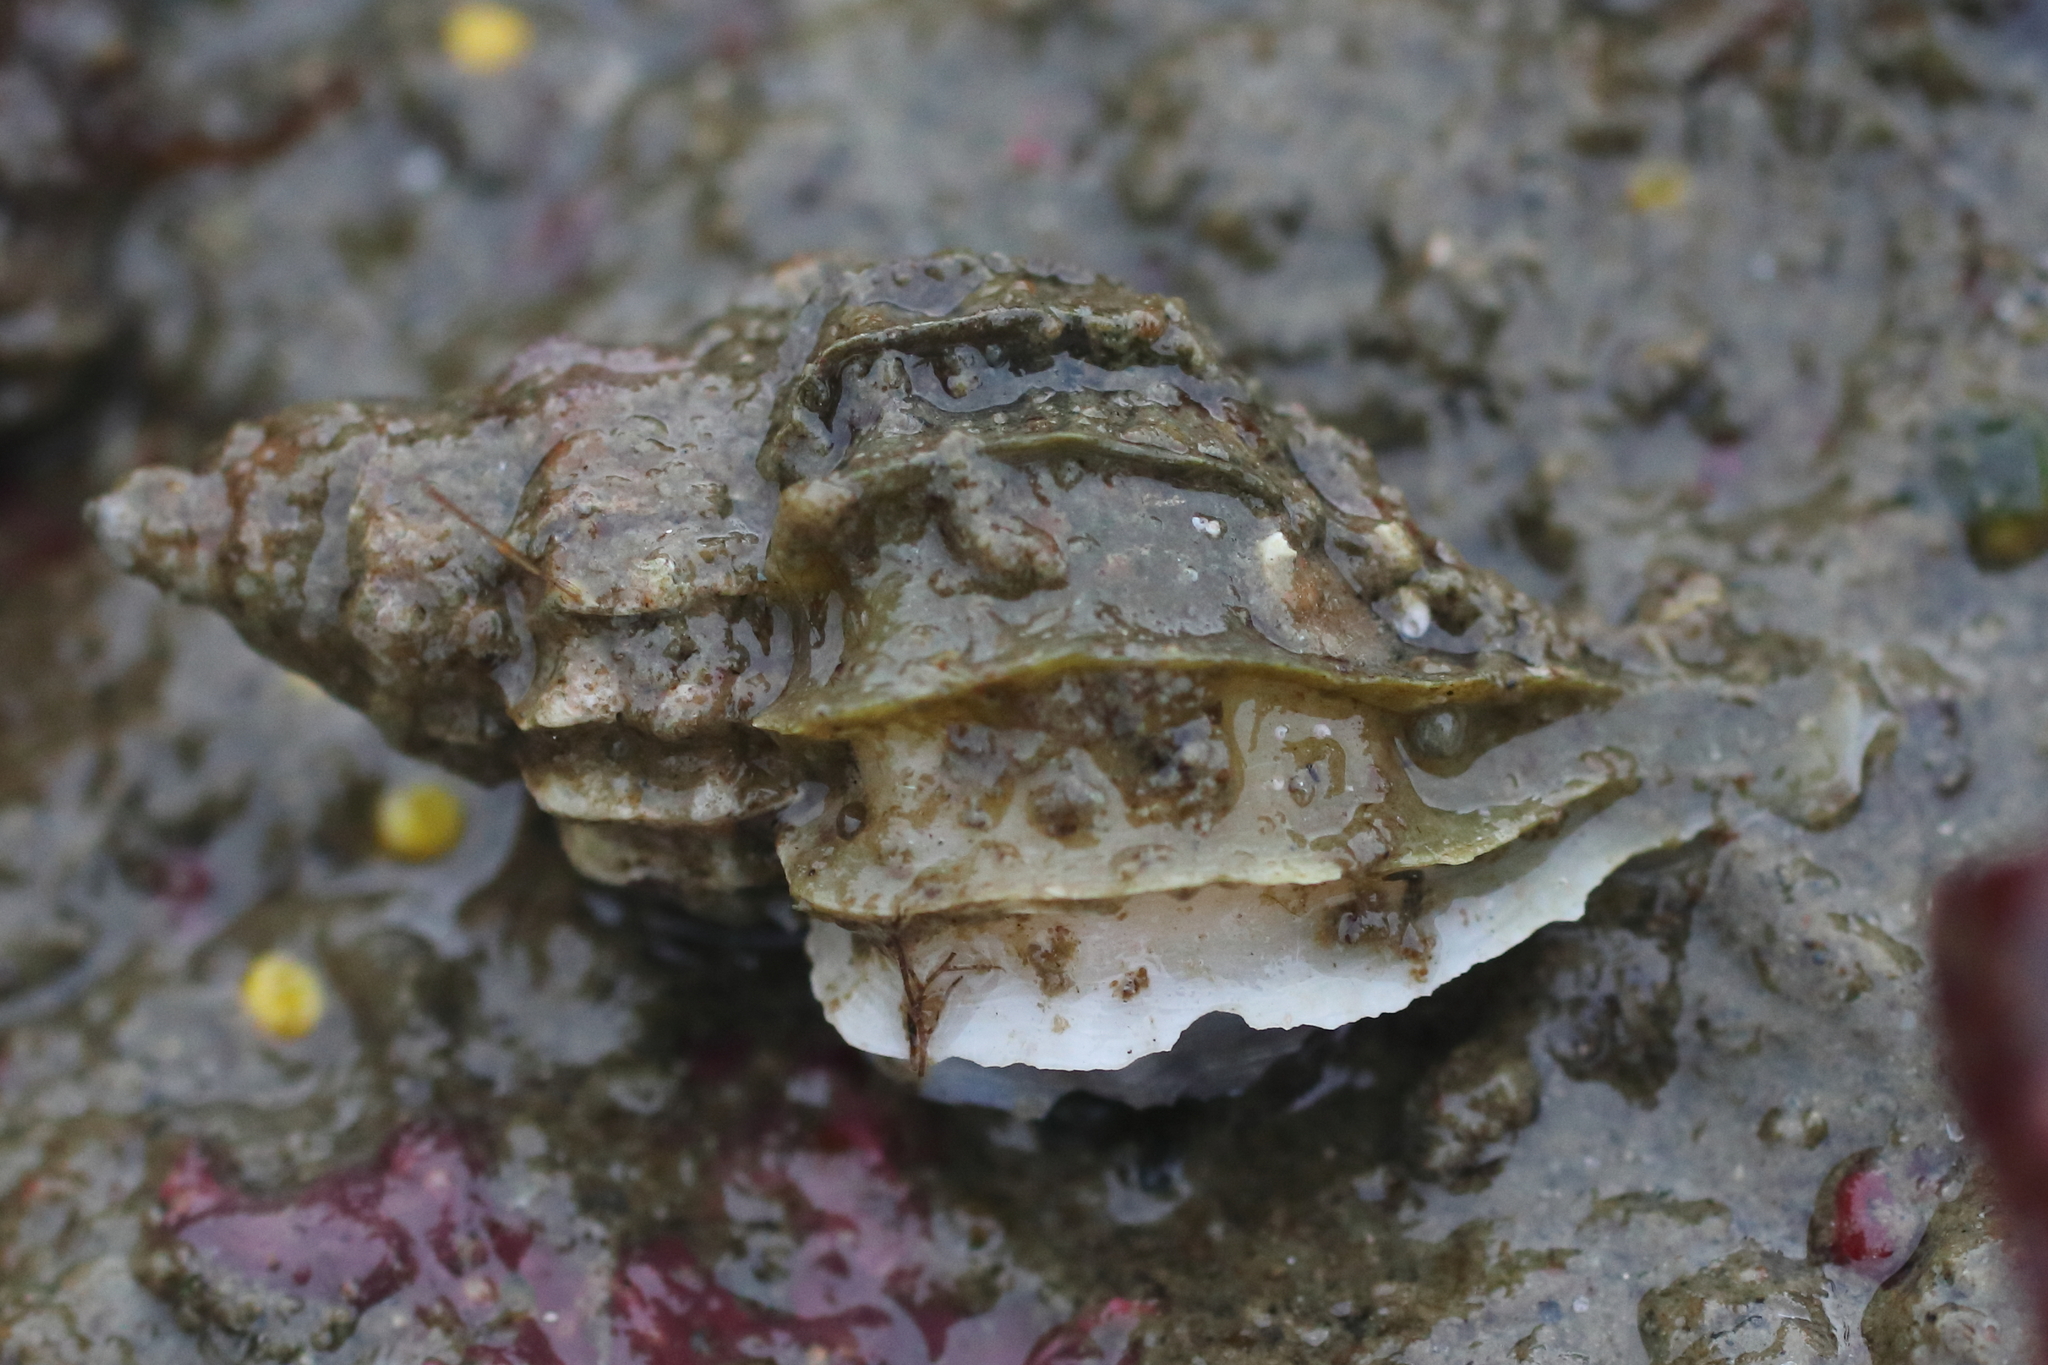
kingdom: Animalia
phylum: Mollusca
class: Gastropoda
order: Neogastropoda
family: Muricidae
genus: Scabrotrophon
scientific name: Scabrotrophon stuarti
